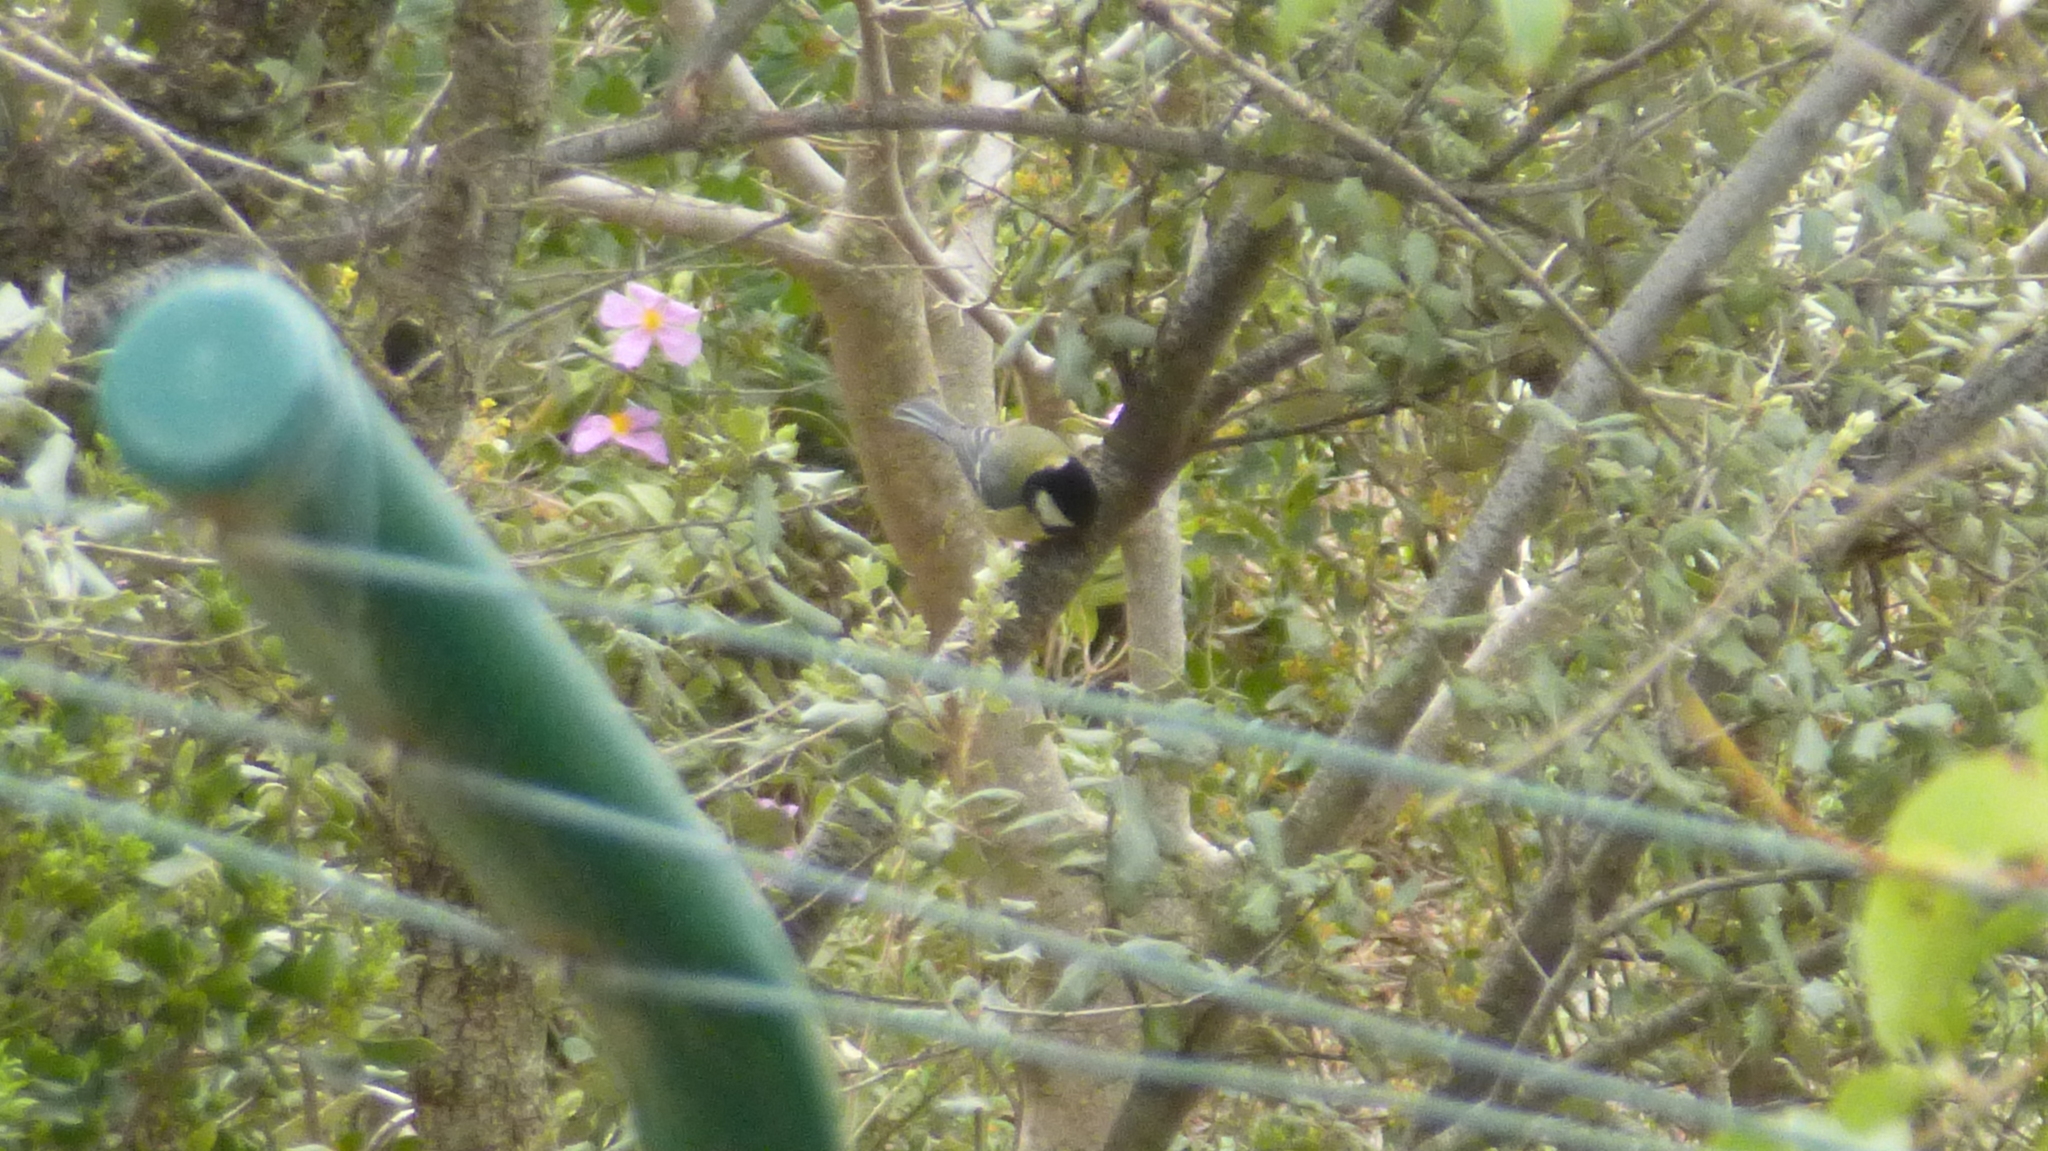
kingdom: Animalia
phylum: Chordata
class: Aves
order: Passeriformes
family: Paridae
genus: Parus
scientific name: Parus major
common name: Great tit
